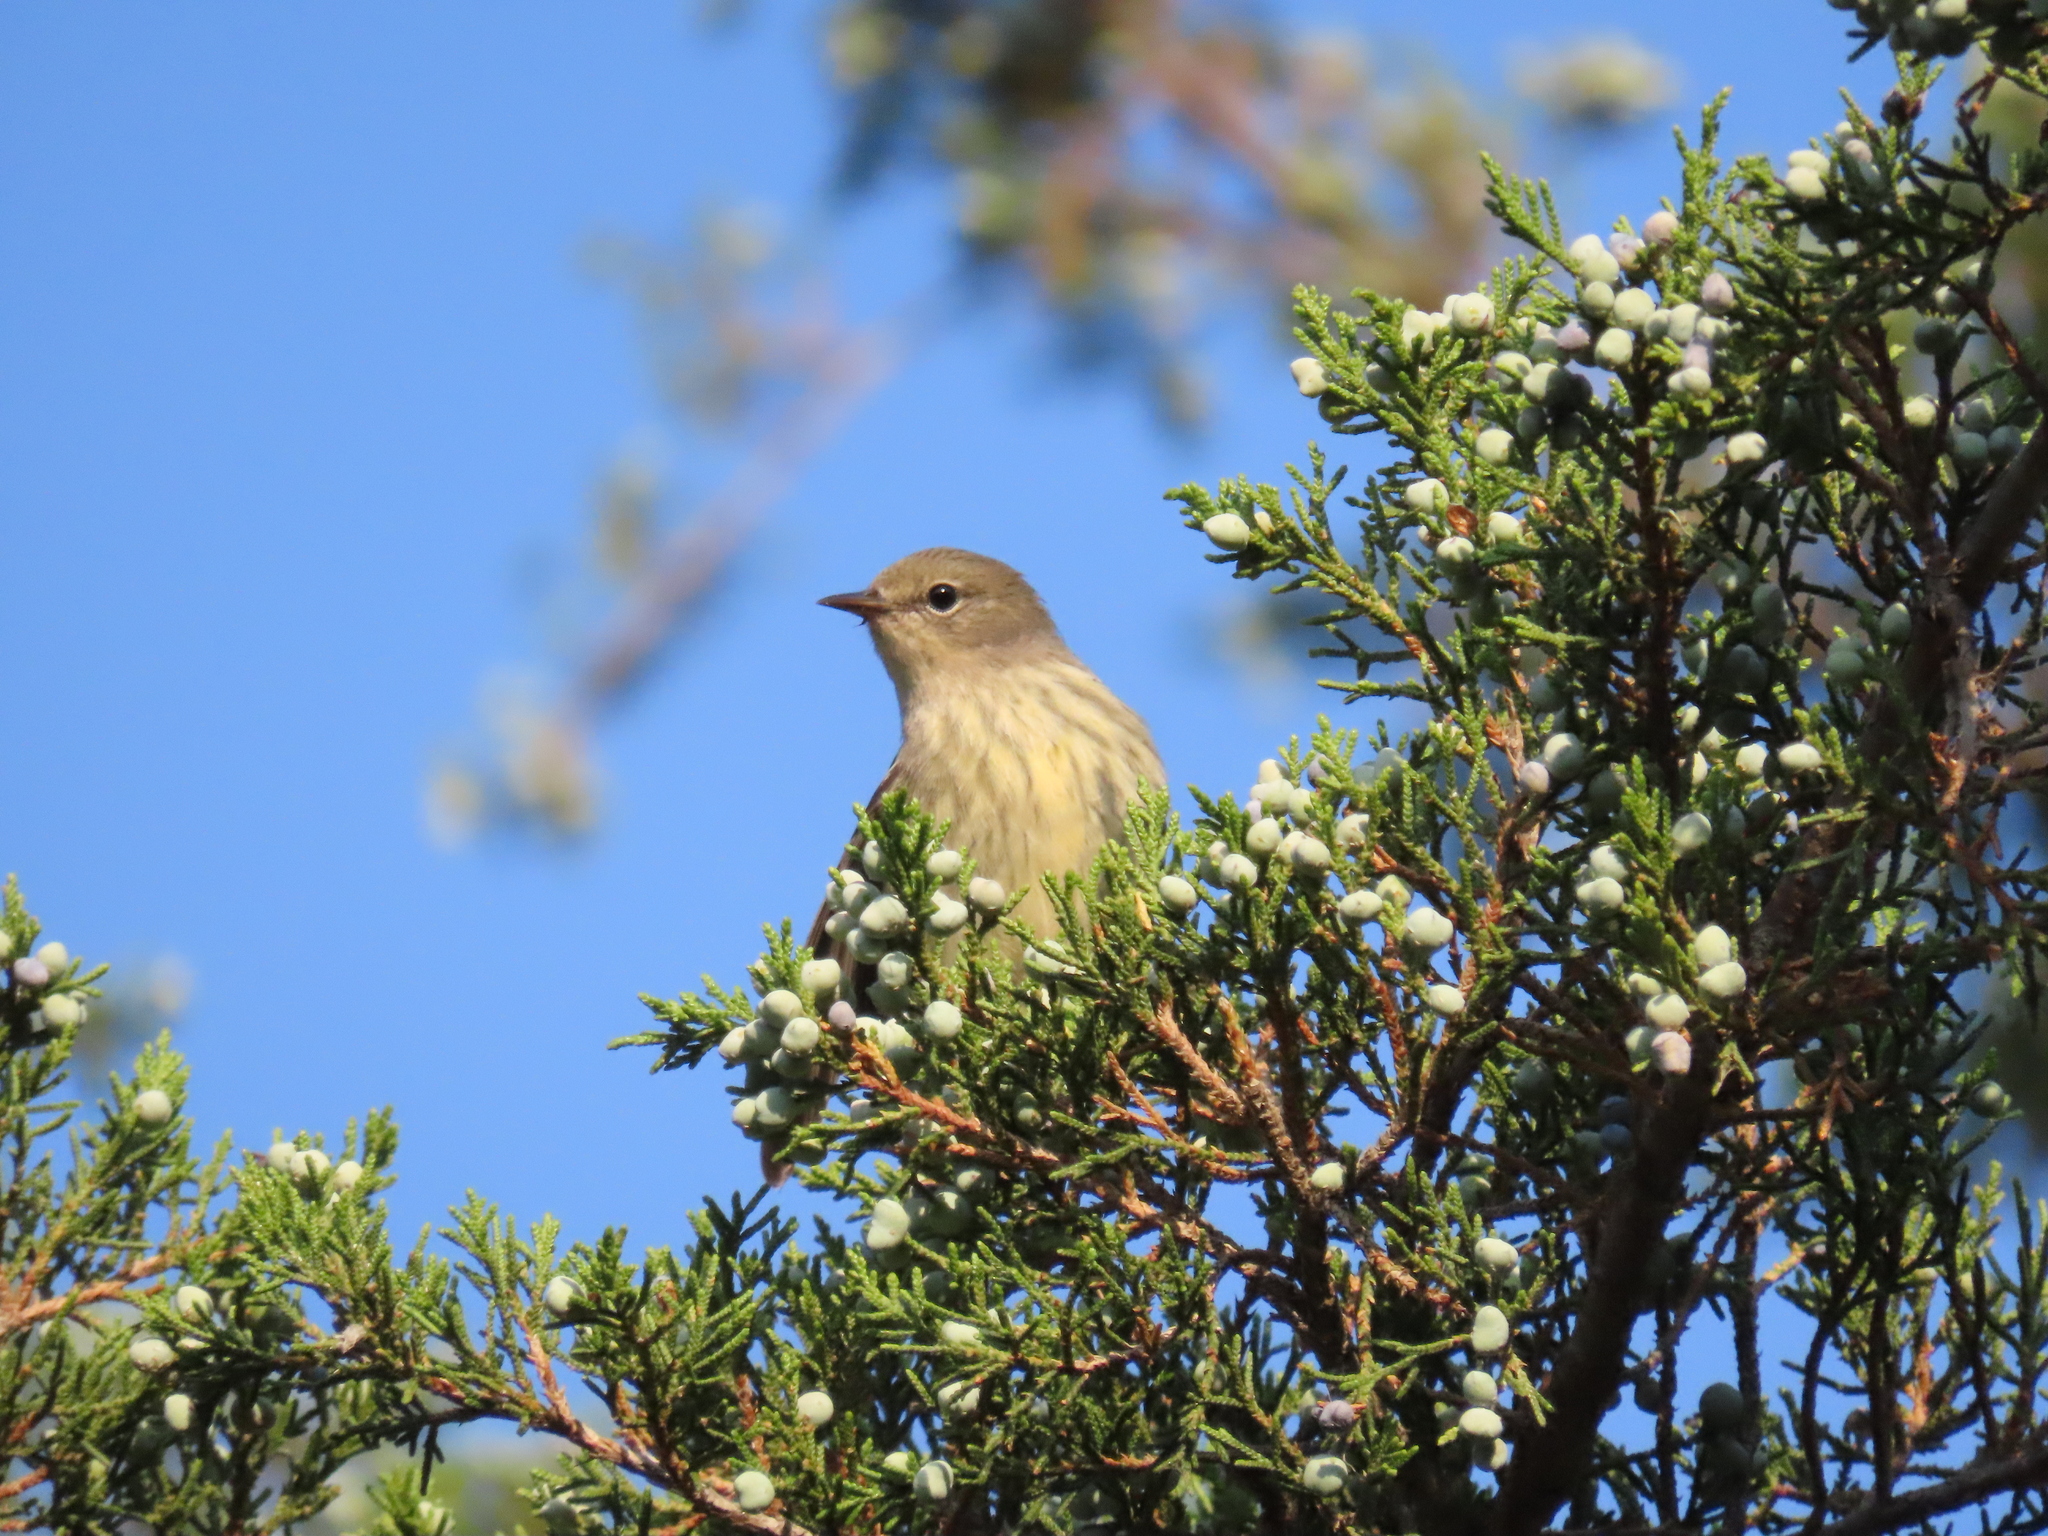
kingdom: Animalia
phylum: Chordata
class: Aves
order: Passeriformes
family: Parulidae
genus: Setophaga
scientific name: Setophaga tigrina
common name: Cape may warbler
